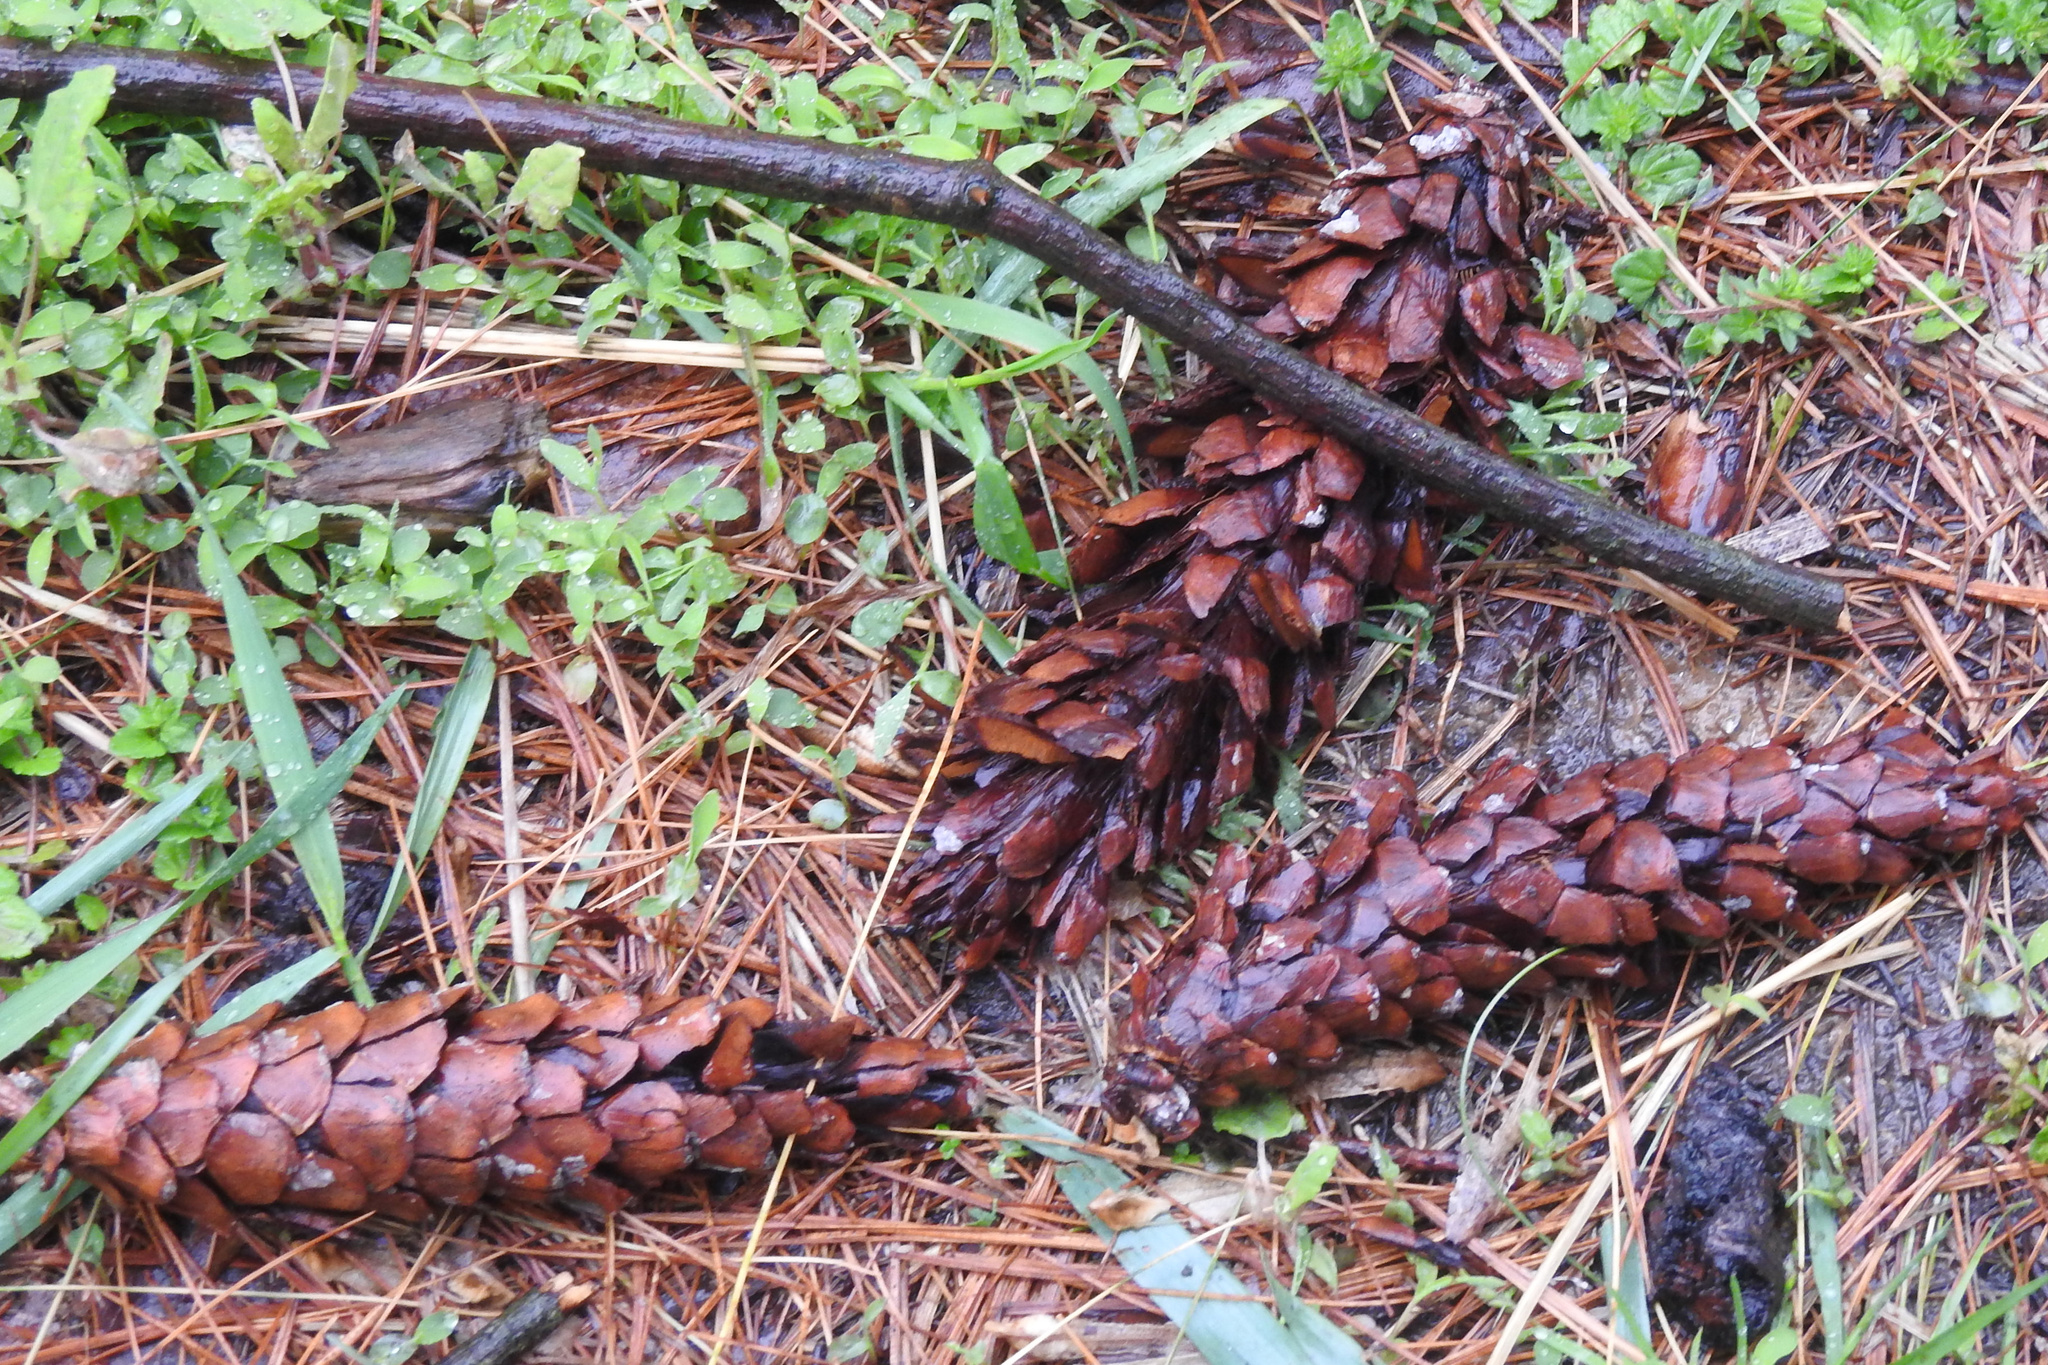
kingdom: Plantae
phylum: Tracheophyta
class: Pinopsida
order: Pinales
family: Pinaceae
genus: Pinus
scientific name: Pinus strobus
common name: Weymouth pine
